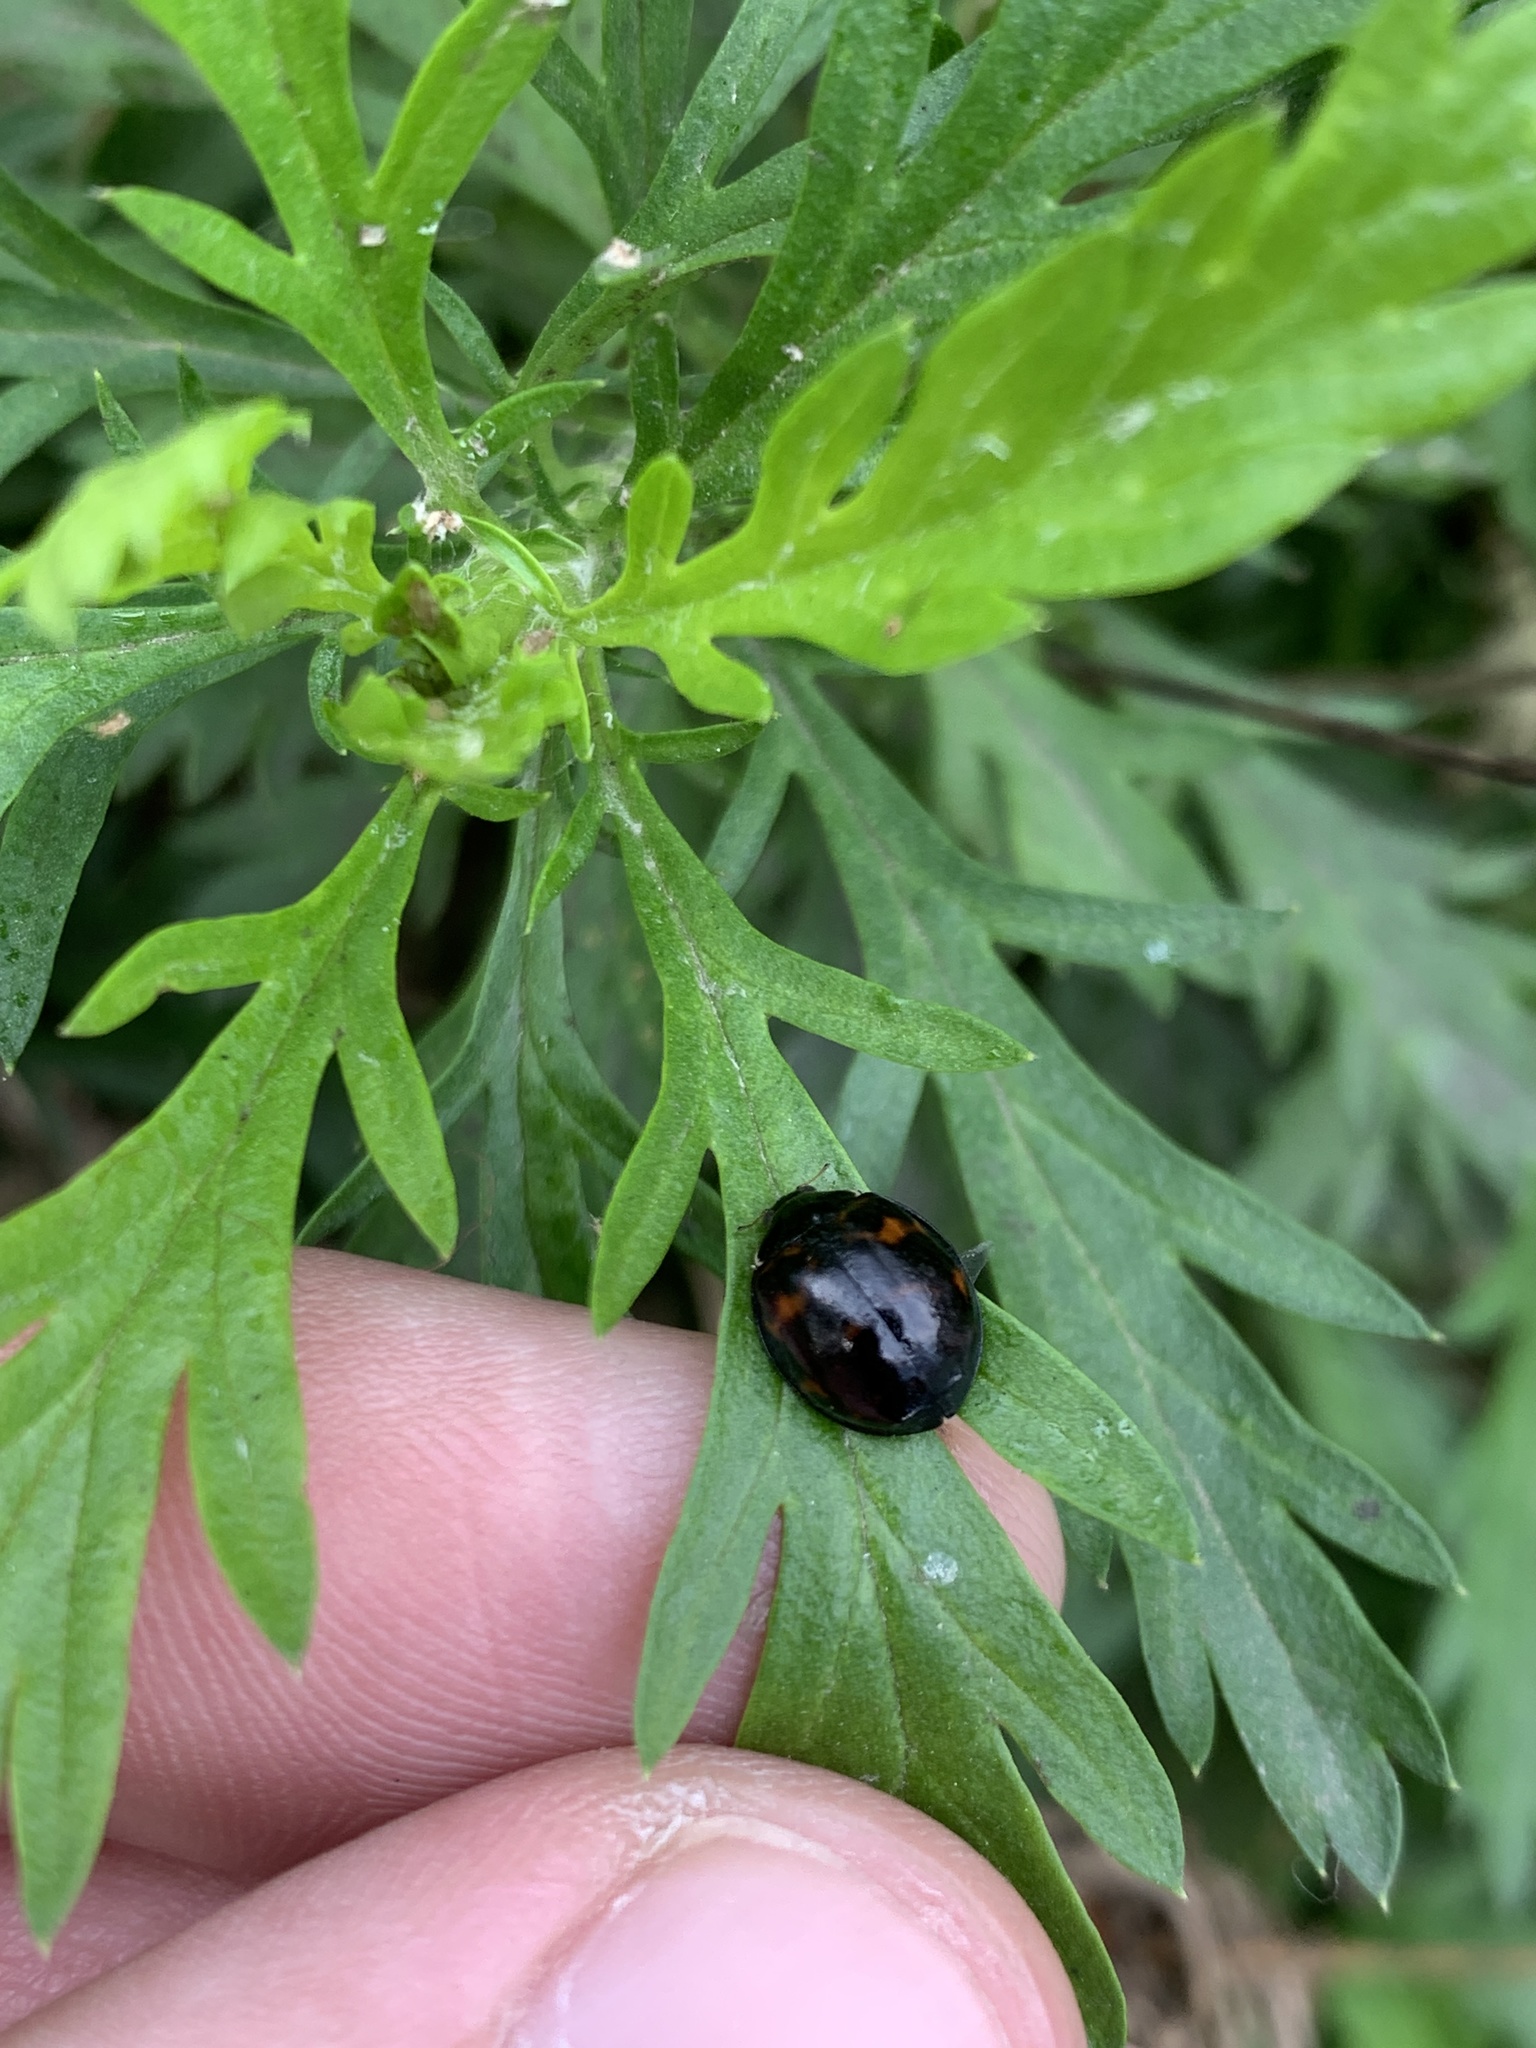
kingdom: Animalia
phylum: Arthropoda
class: Insecta
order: Coleoptera
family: Coccinellidae
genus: Harmonia
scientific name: Harmonia axyridis
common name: Harlequin ladybird
